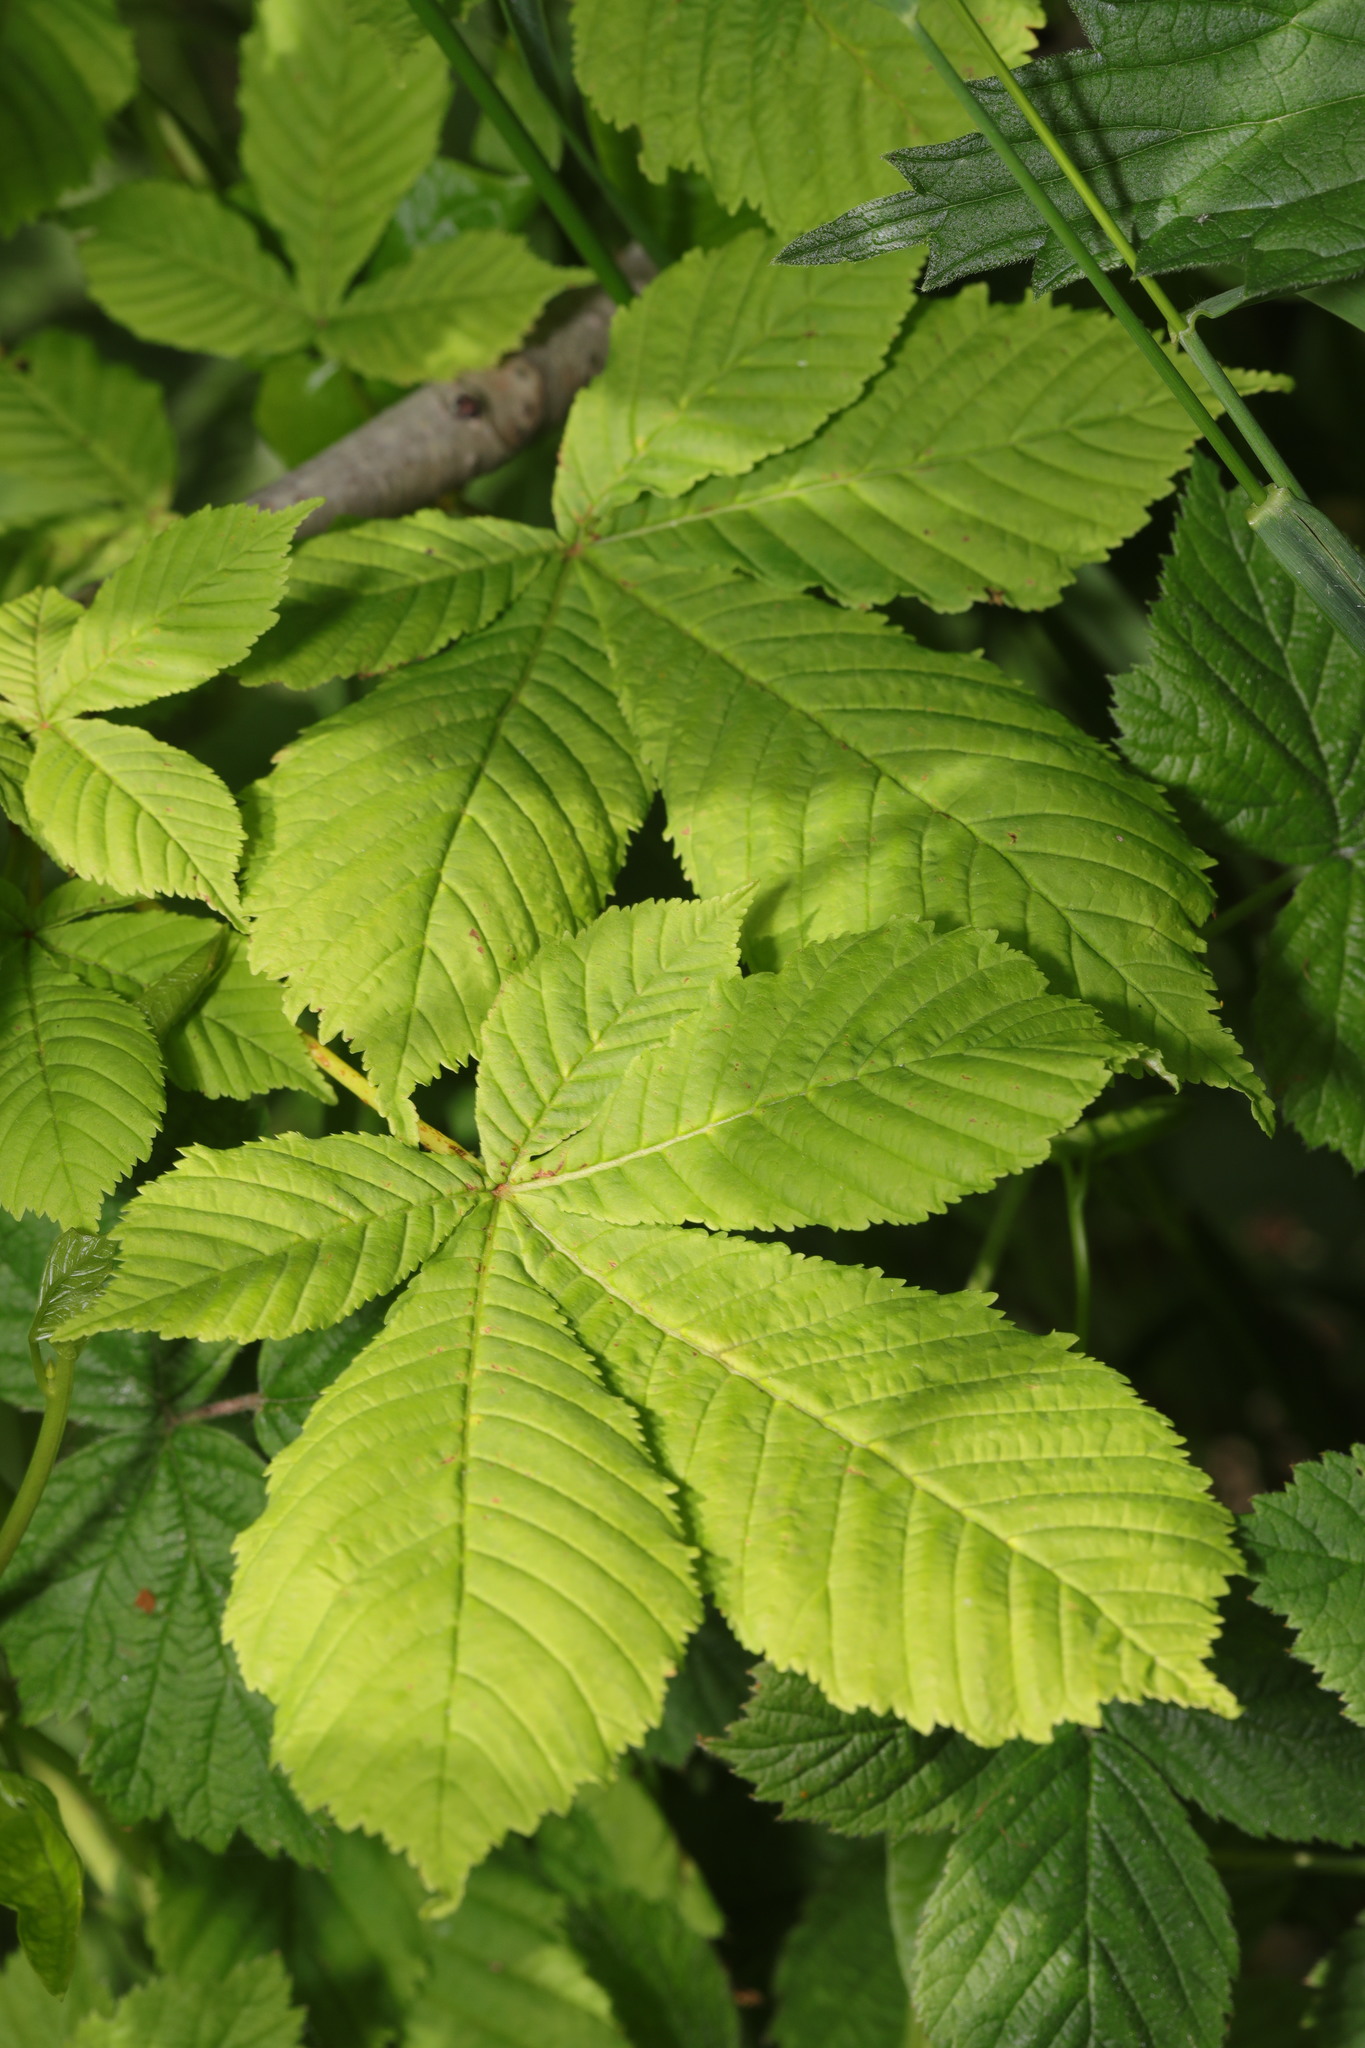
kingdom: Plantae
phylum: Tracheophyta
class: Magnoliopsida
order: Sapindales
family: Sapindaceae
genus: Aesculus
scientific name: Aesculus hippocastanum
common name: Horse-chestnut
